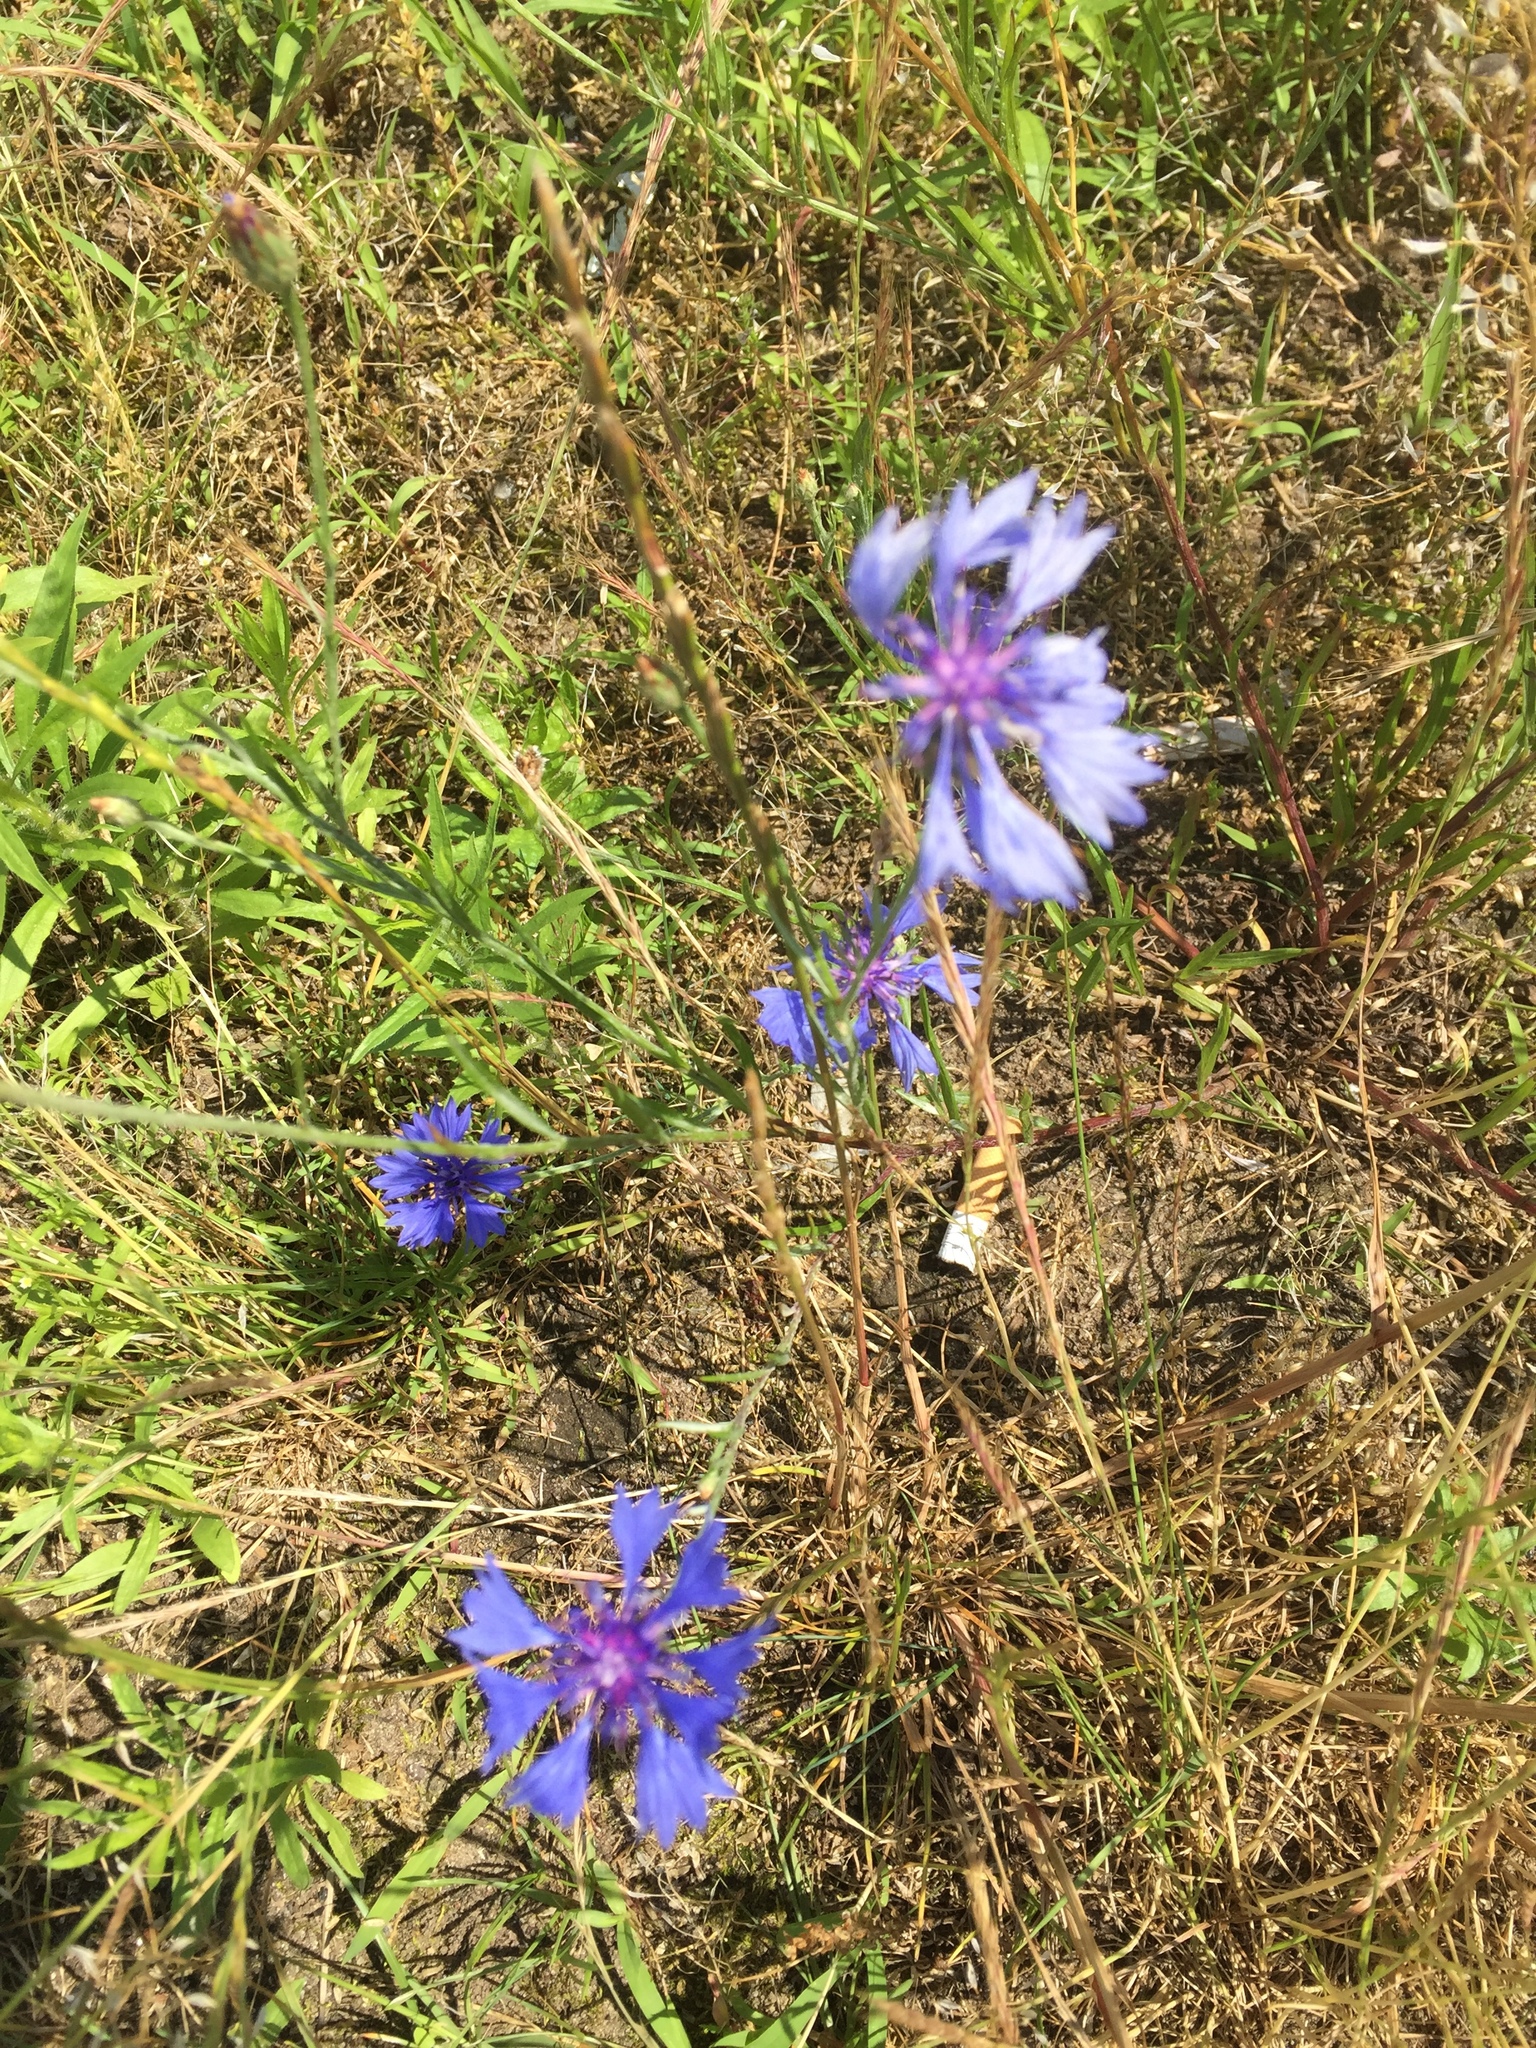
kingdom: Plantae
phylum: Tracheophyta
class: Magnoliopsida
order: Asterales
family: Asteraceae
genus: Centaurea
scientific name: Centaurea cyanus
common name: Cornflower
